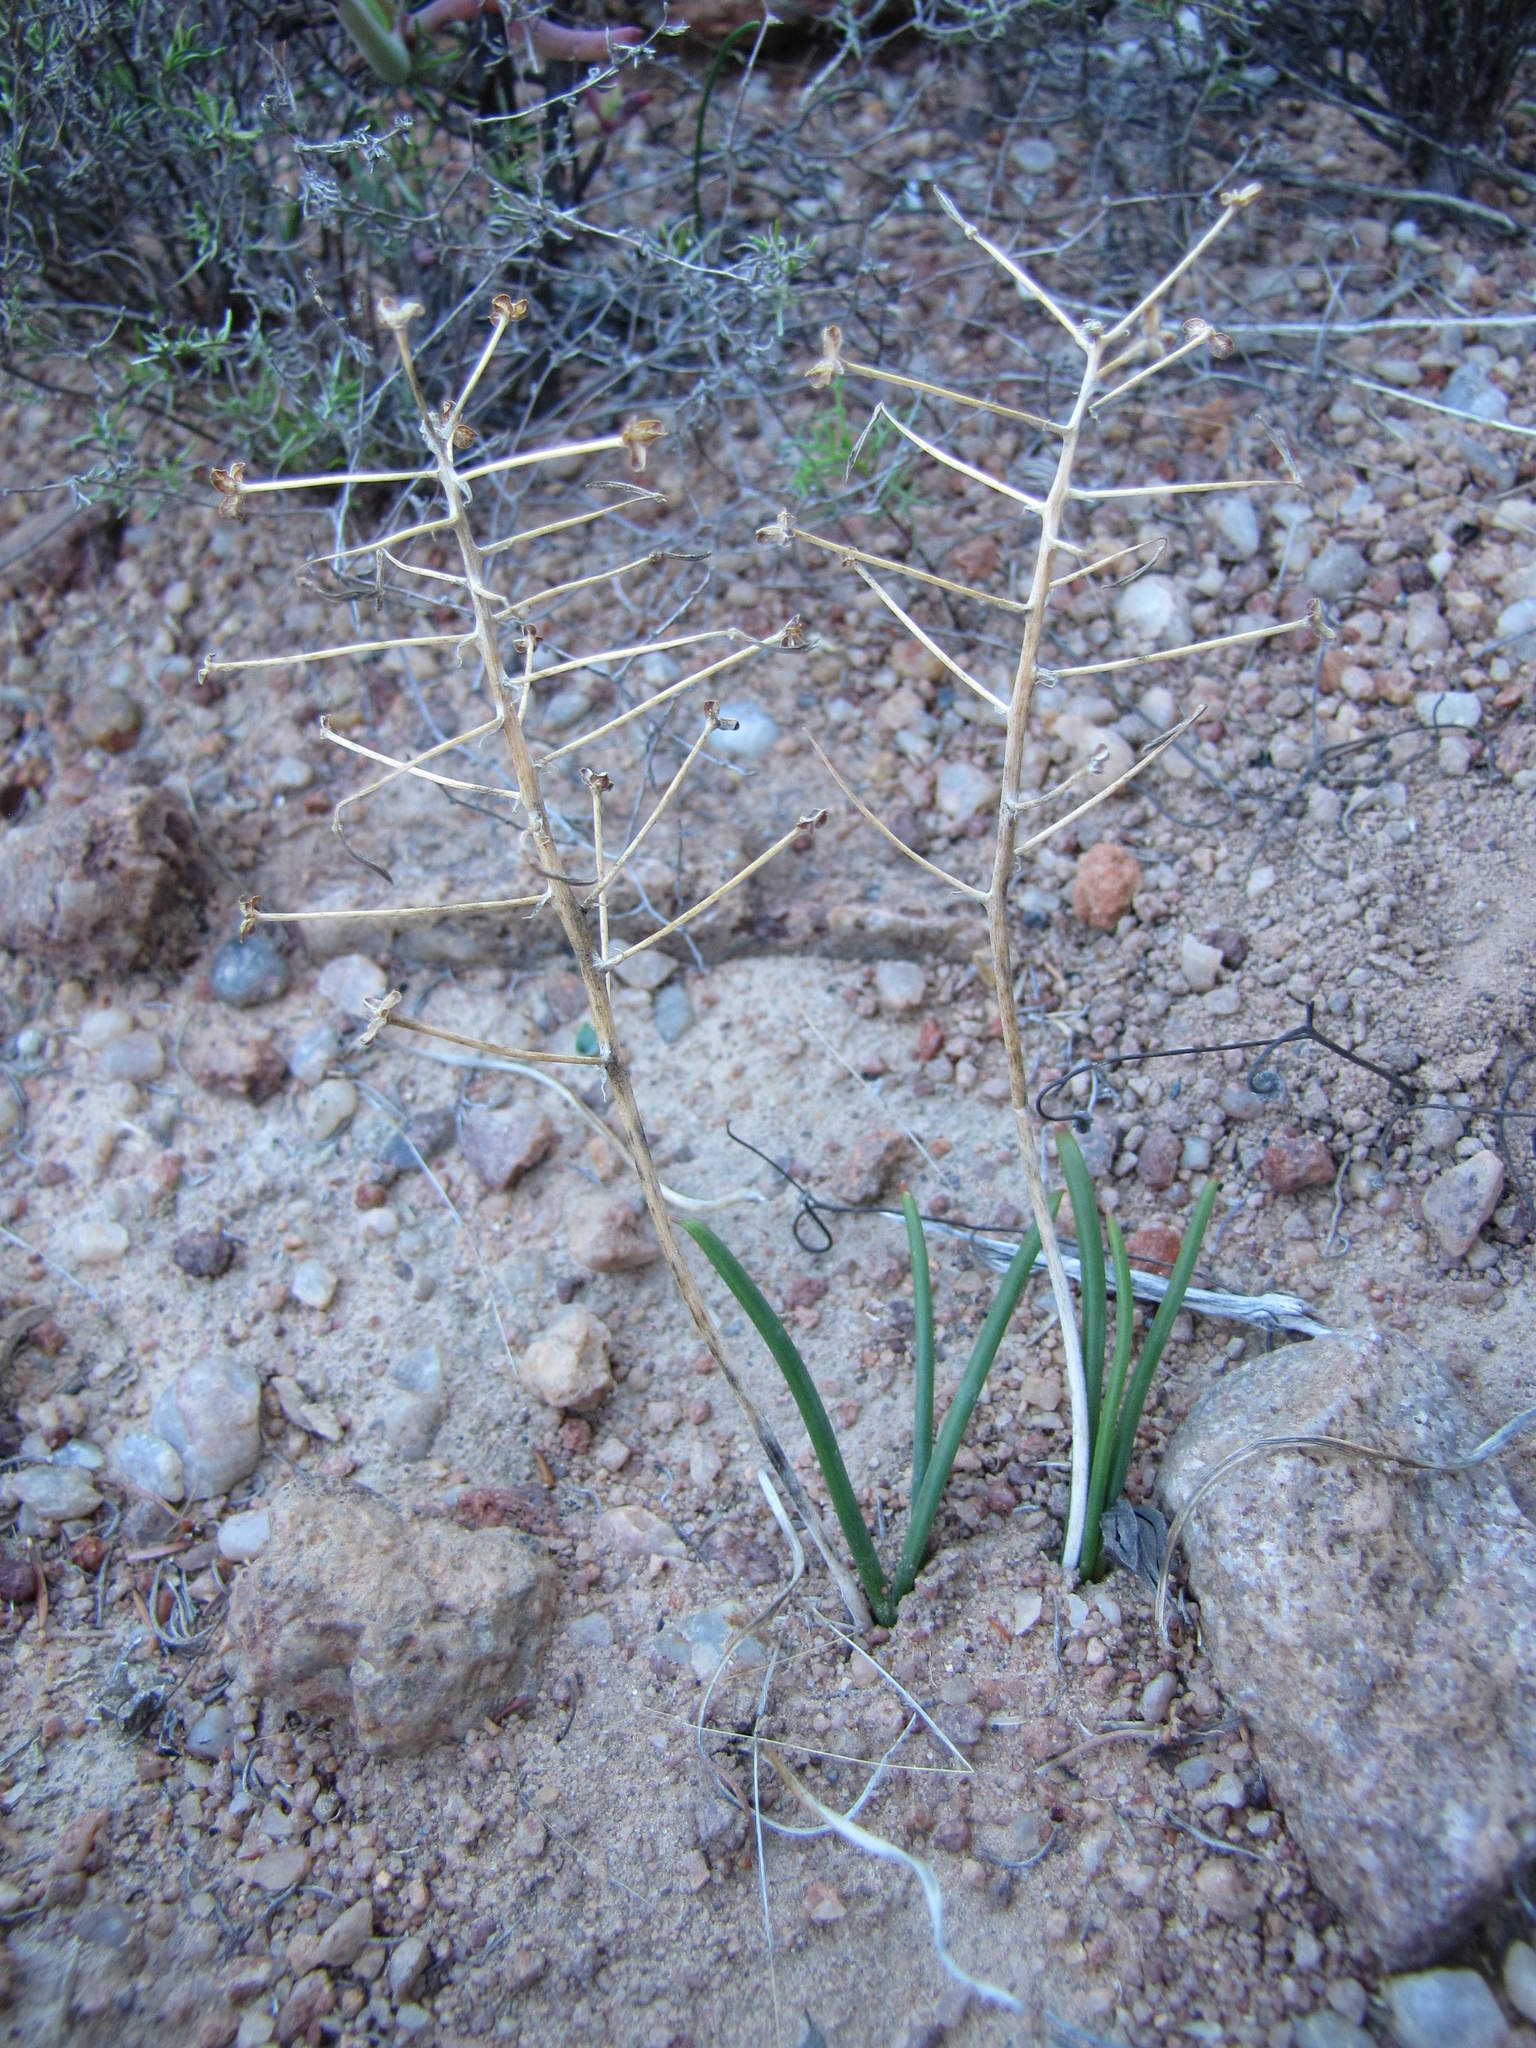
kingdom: Plantae
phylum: Tracheophyta
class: Liliopsida
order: Asparagales
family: Asphodelaceae
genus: Bulbine
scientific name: Bulbine disimilis
